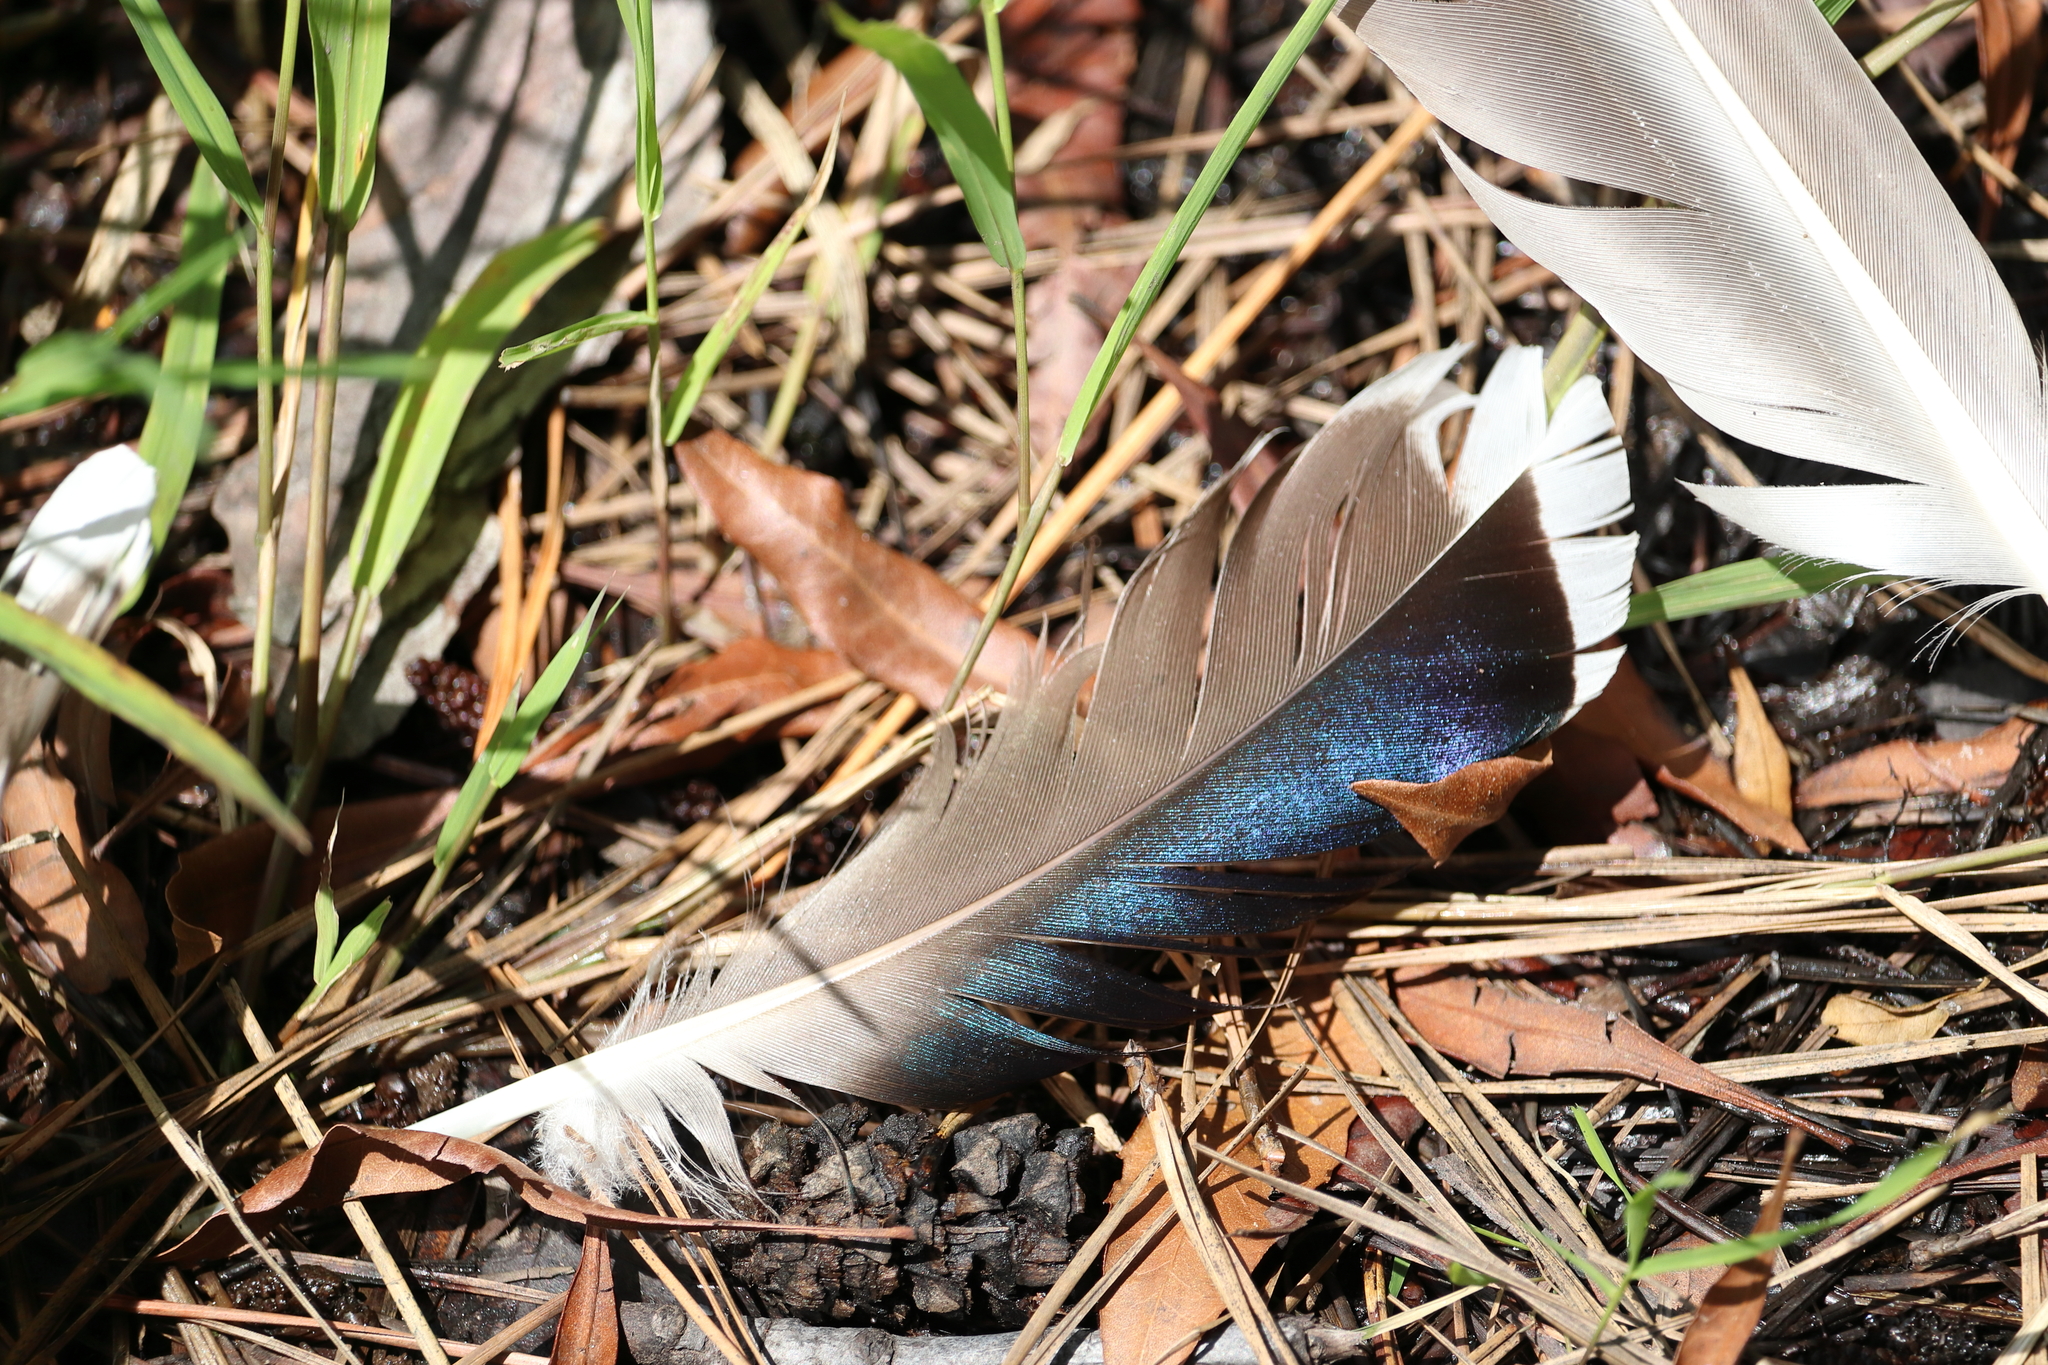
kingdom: Animalia
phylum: Chordata
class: Aves
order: Anseriformes
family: Anatidae
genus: Anas
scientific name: Anas platyrhynchos
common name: Mallard
